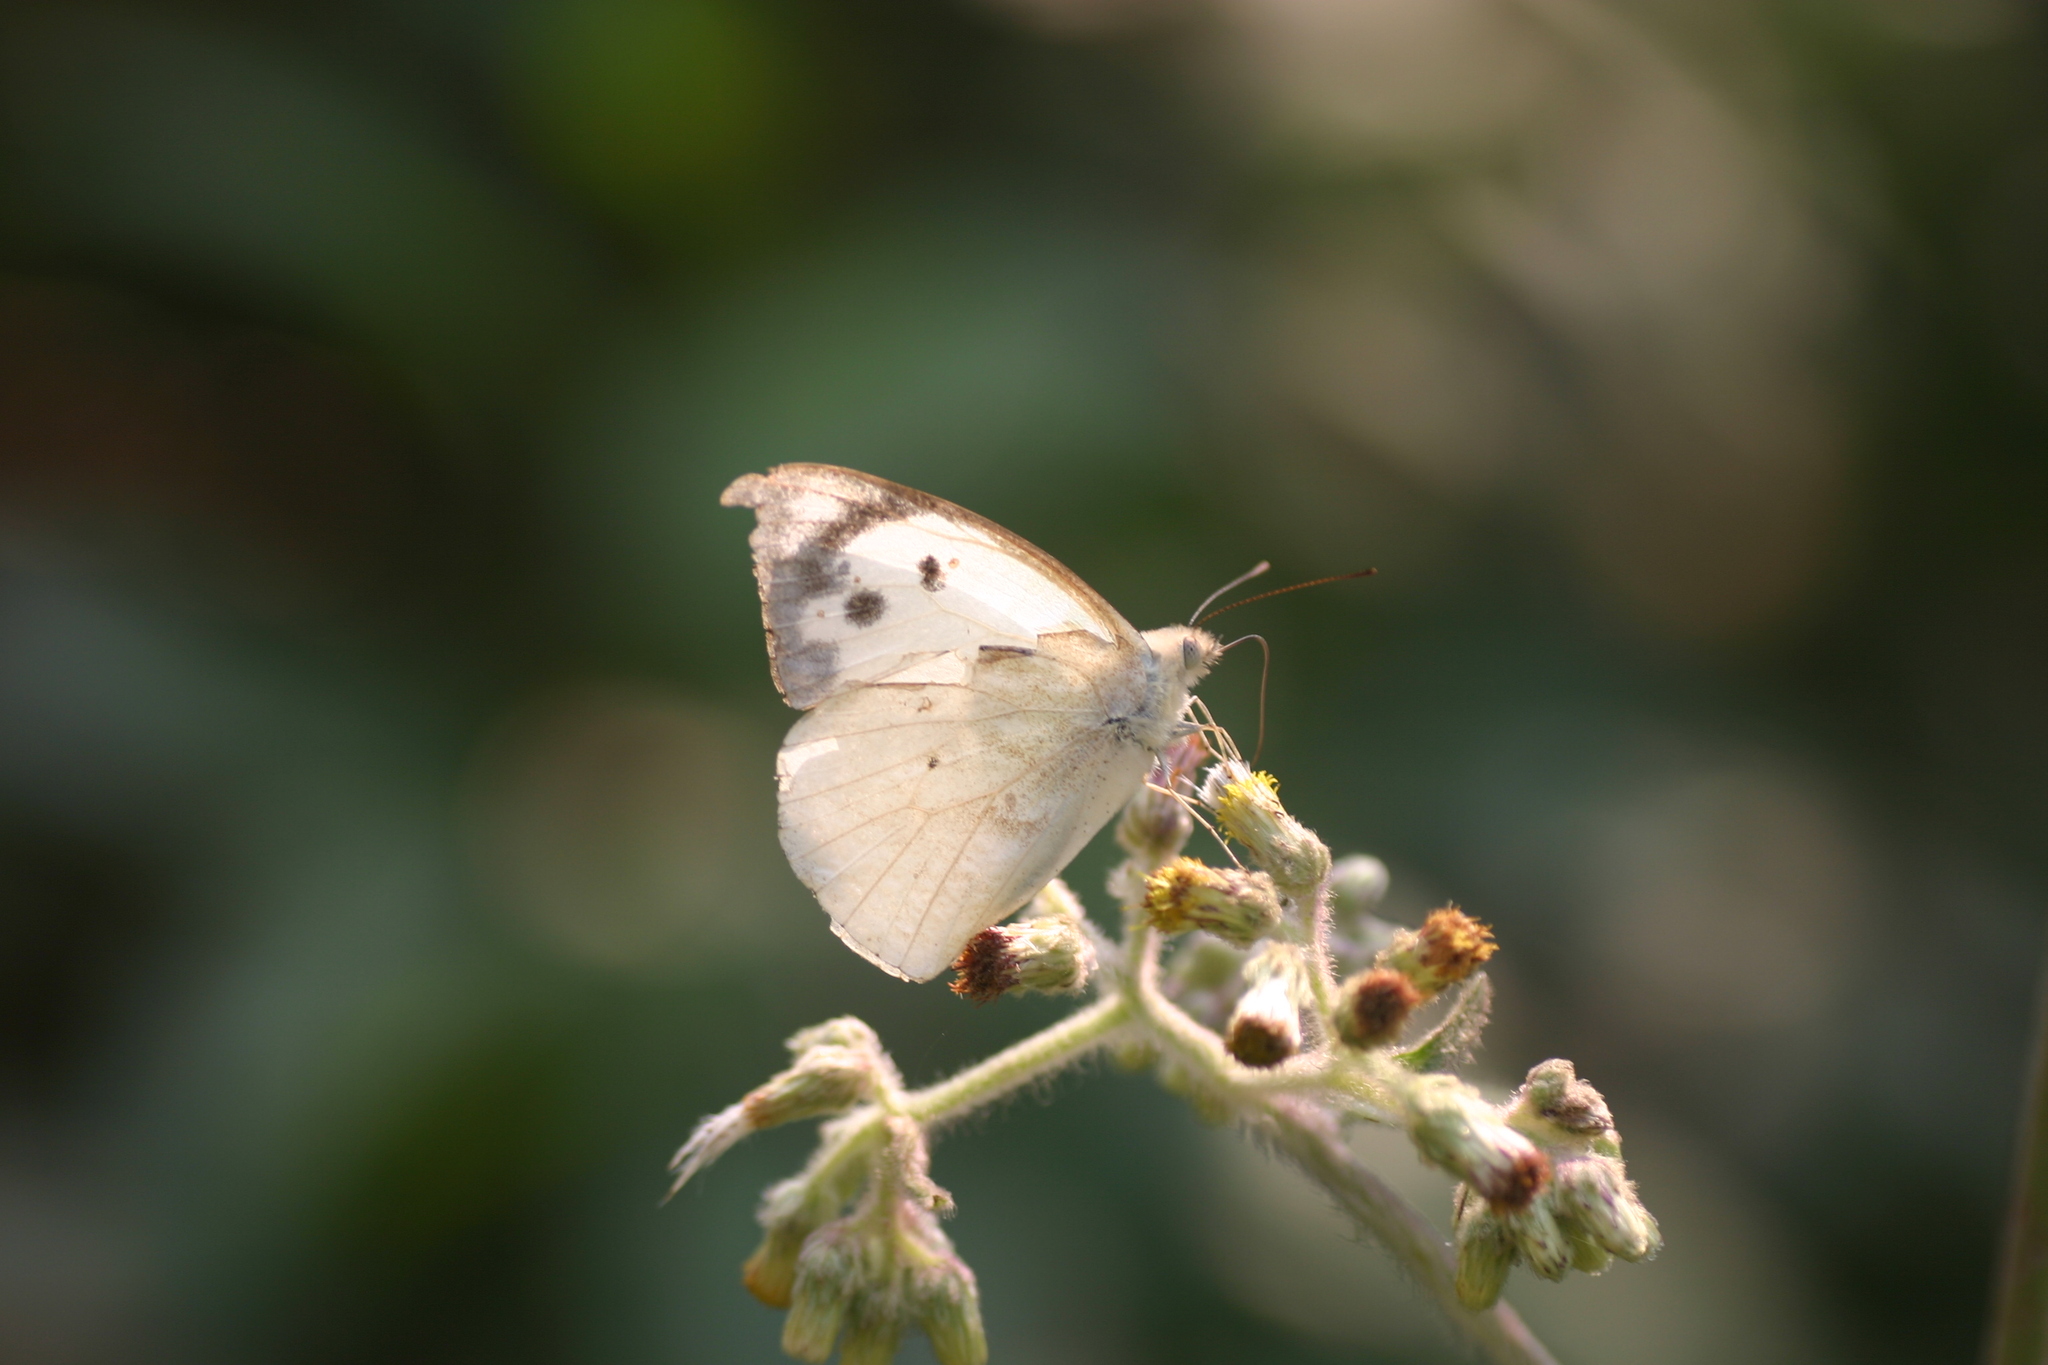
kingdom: Animalia
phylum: Arthropoda
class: Insecta
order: Lepidoptera
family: Pieridae
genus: Appias
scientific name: Appias lalage
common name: Spot puffin
